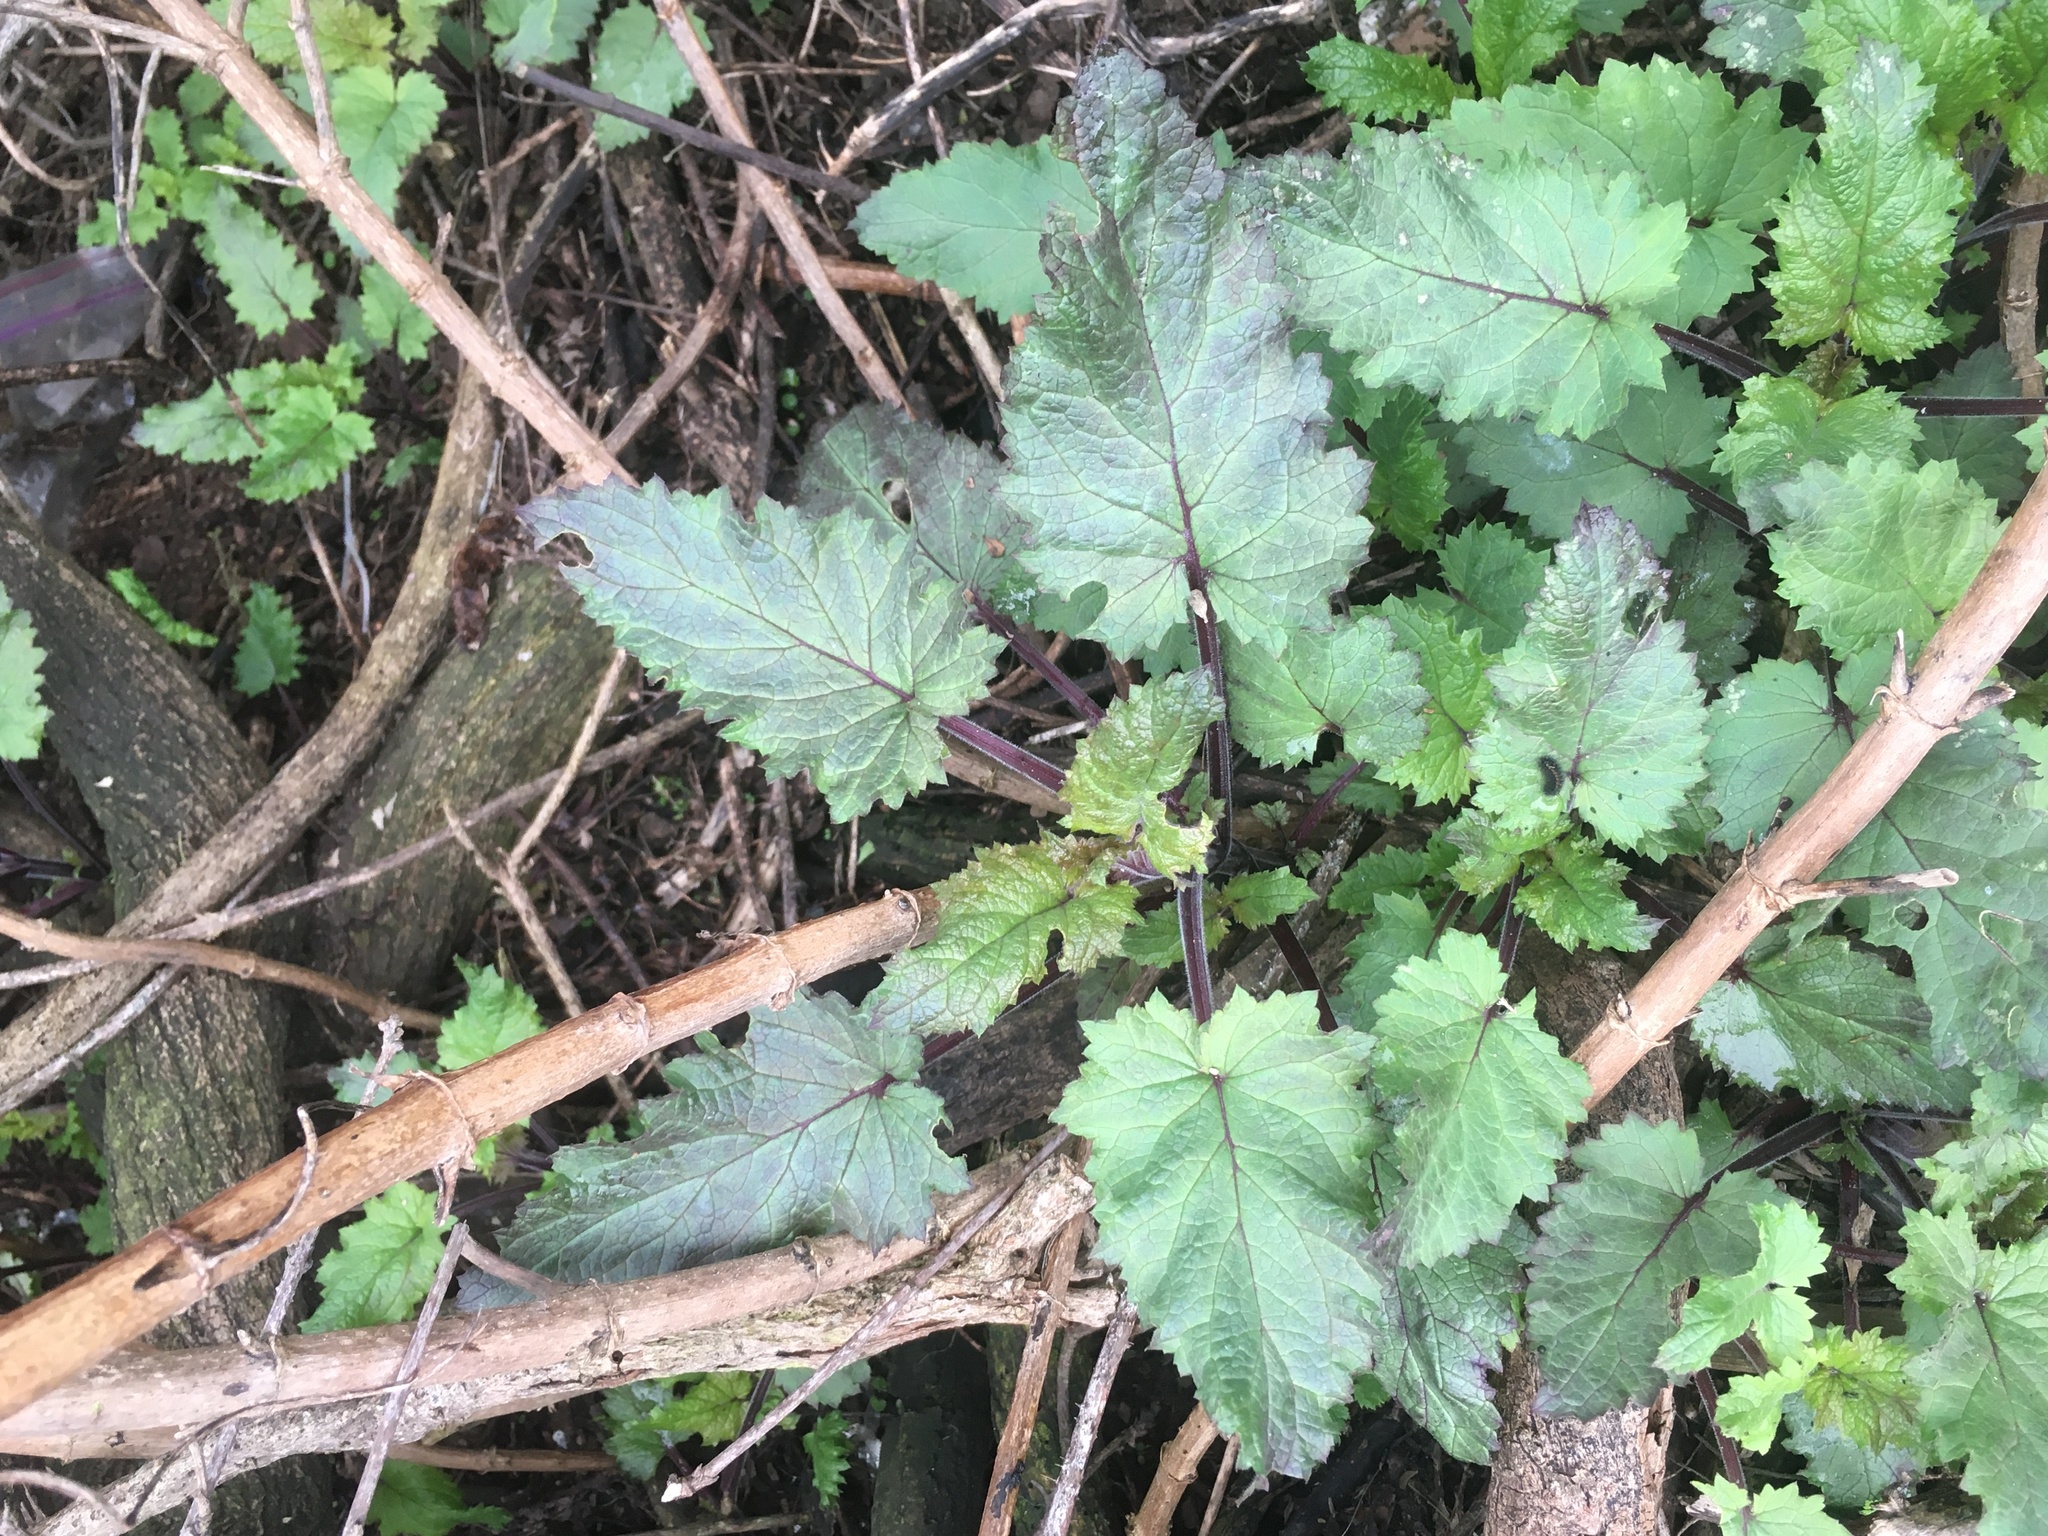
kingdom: Plantae
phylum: Tracheophyta
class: Magnoliopsida
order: Lamiales
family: Scrophulariaceae
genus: Scrophularia
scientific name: Scrophularia californica
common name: California figwort
